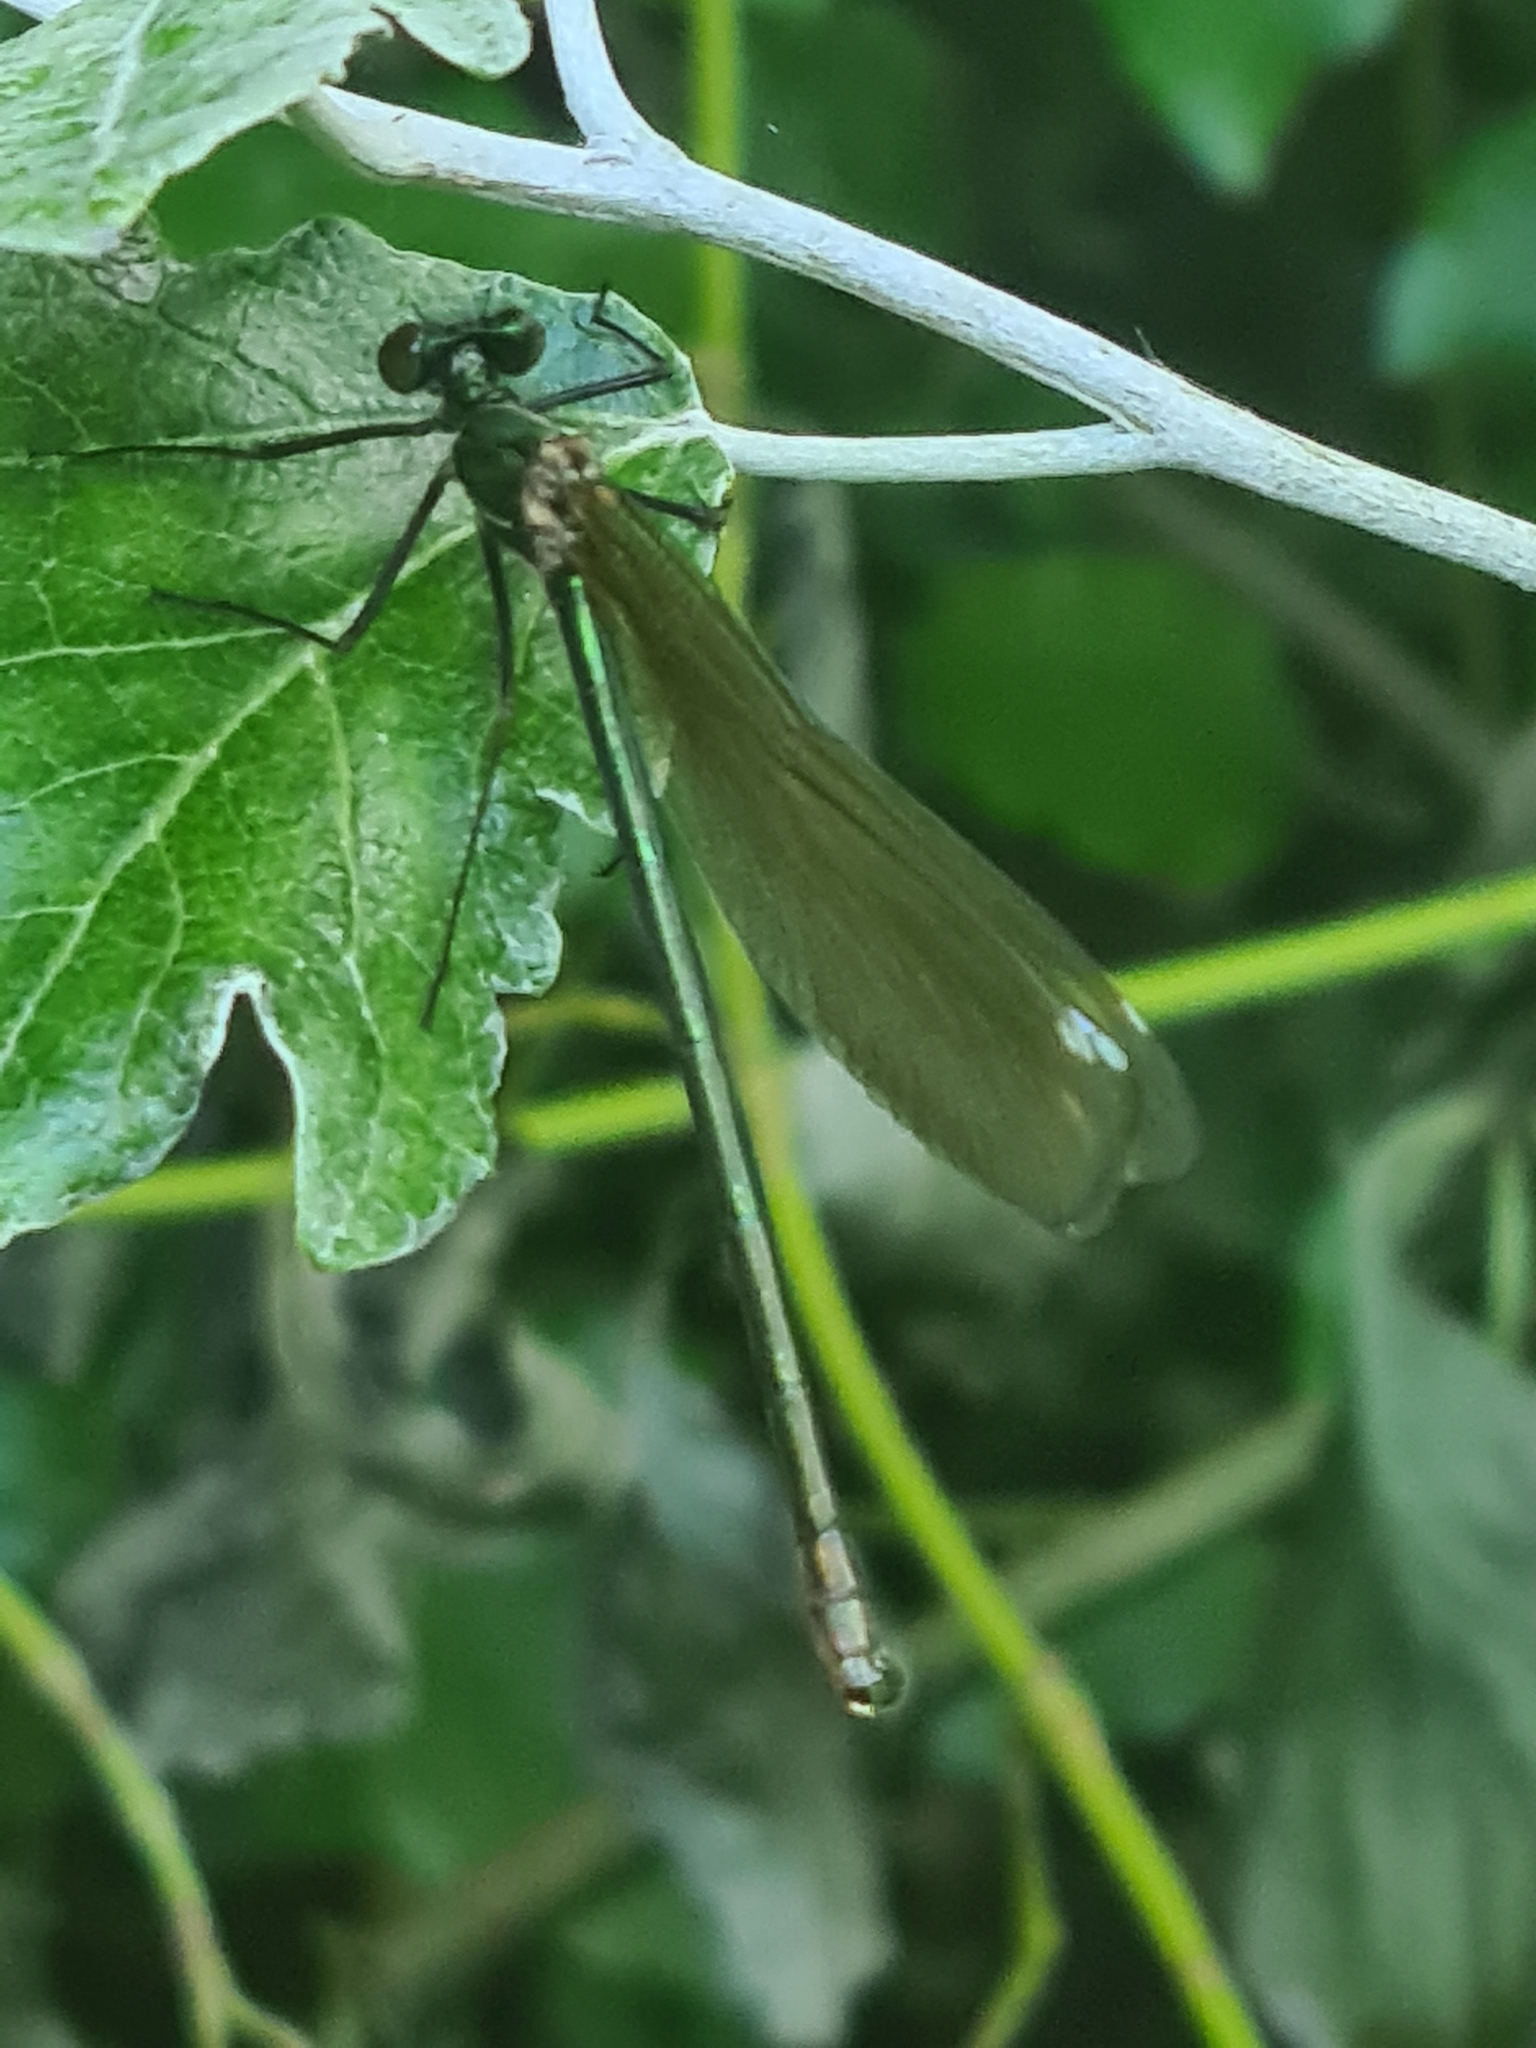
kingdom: Animalia
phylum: Arthropoda
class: Insecta
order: Odonata
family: Calopterygidae
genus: Calopteryx
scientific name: Calopteryx splendens
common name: Banded demoiselle
